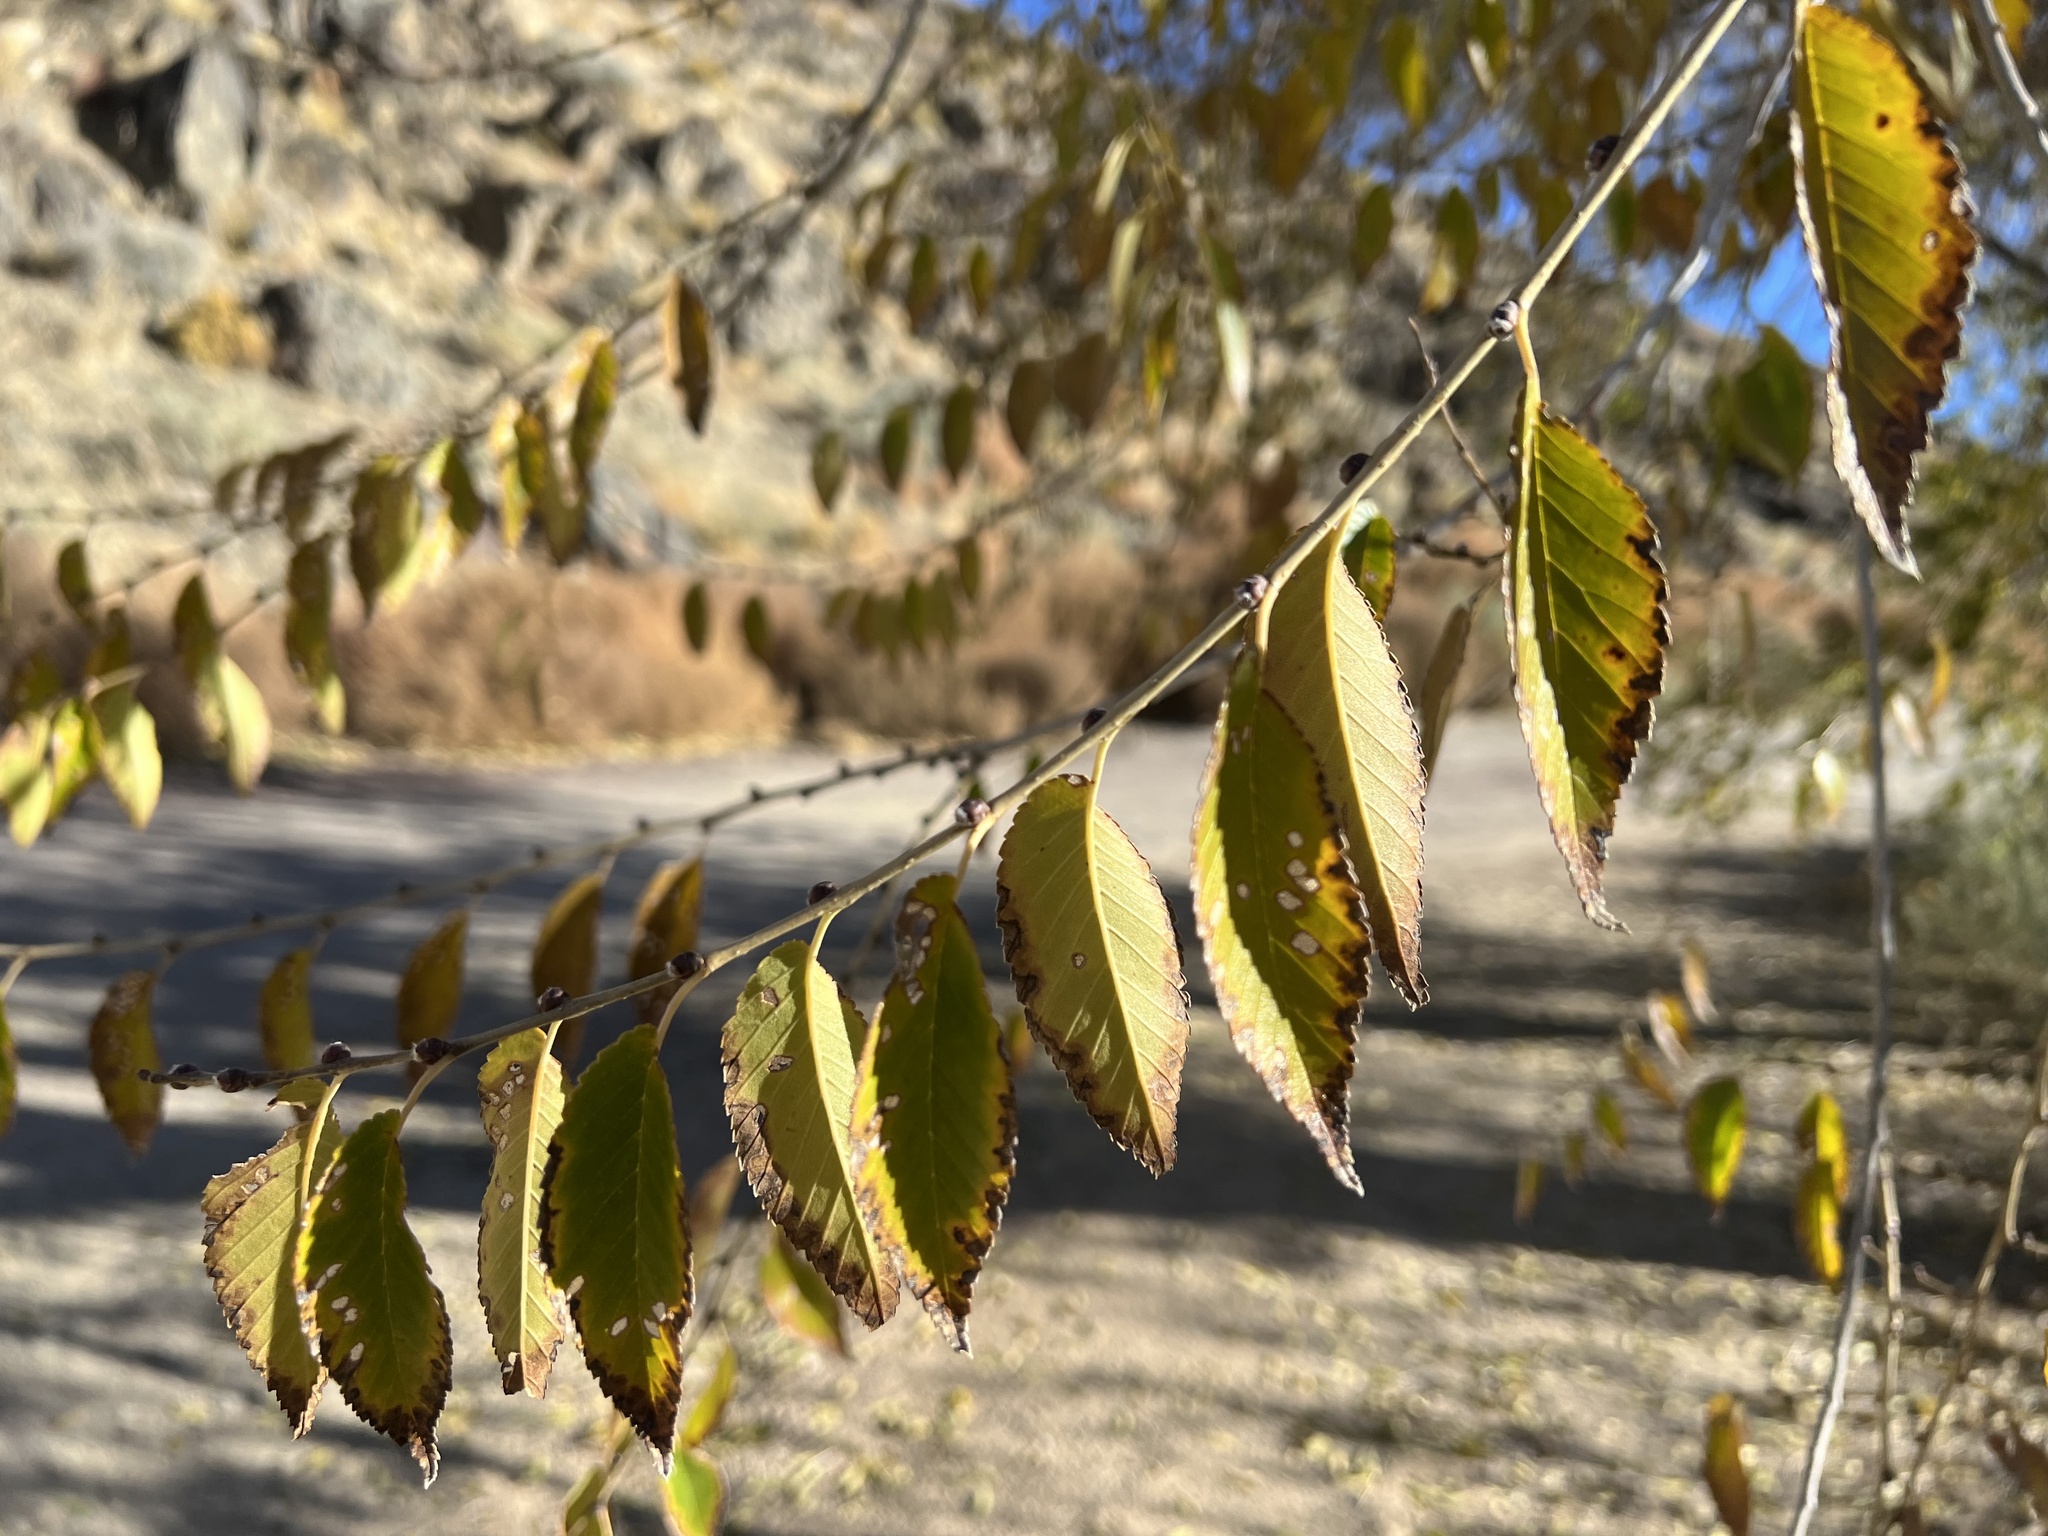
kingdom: Plantae
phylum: Tracheophyta
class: Magnoliopsida
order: Rosales
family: Ulmaceae
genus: Ulmus
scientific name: Ulmus pumila
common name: Siberian elm
